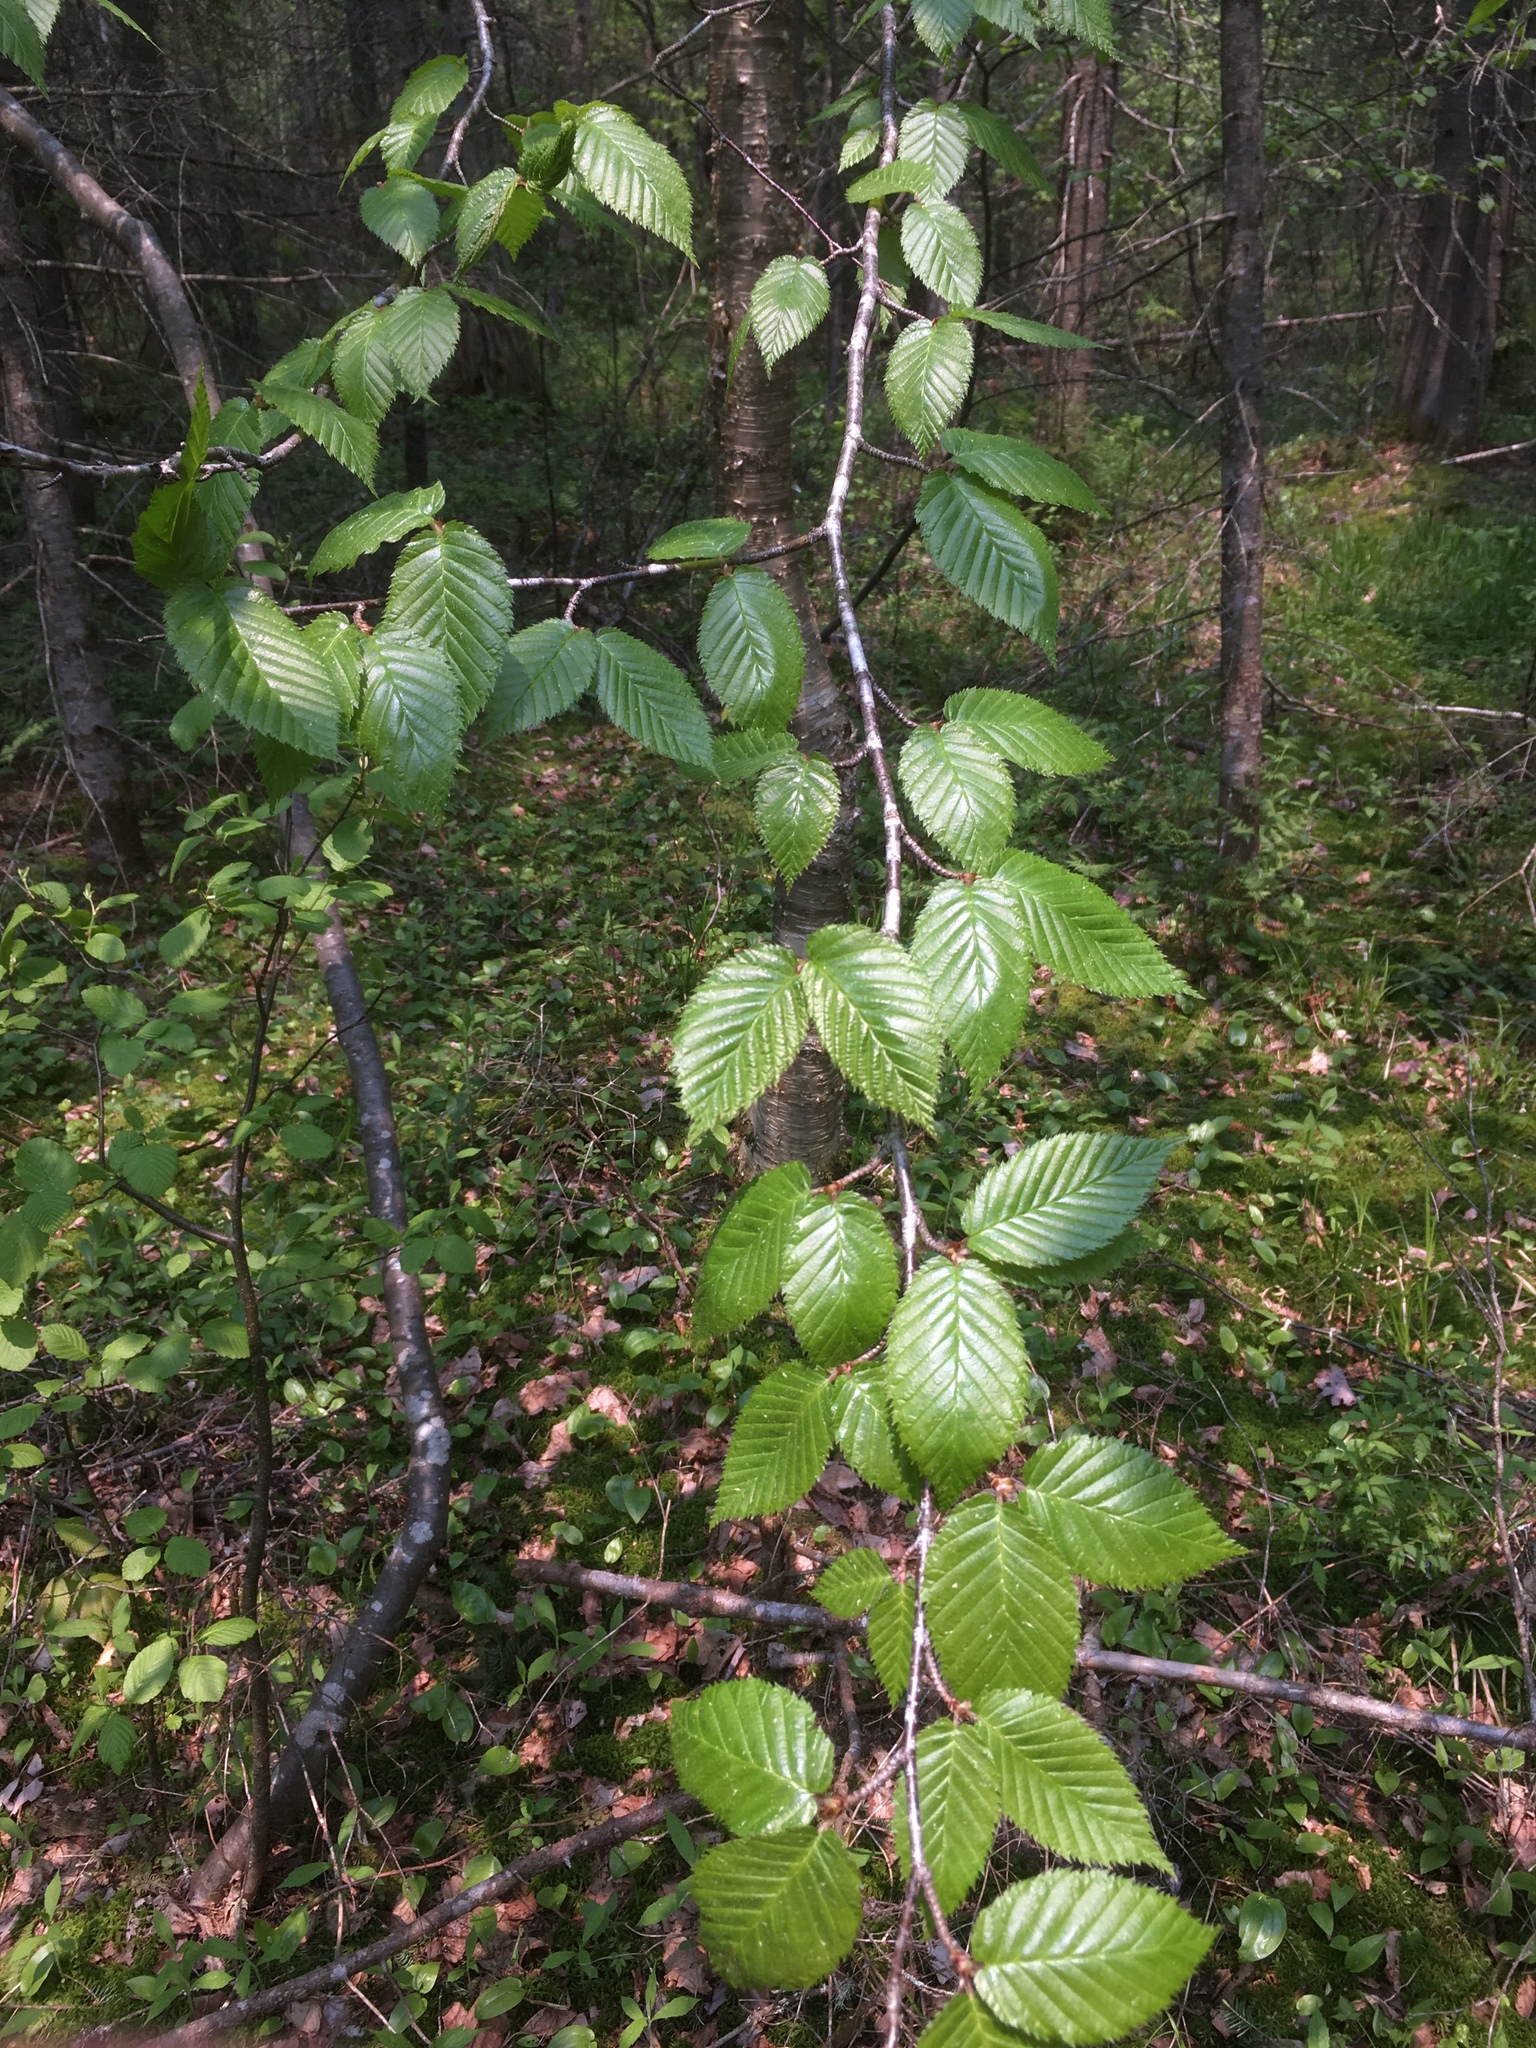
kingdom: Plantae
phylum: Tracheophyta
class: Magnoliopsida
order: Fagales
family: Betulaceae
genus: Betula
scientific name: Betula alleghaniensis
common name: Yellow birch
